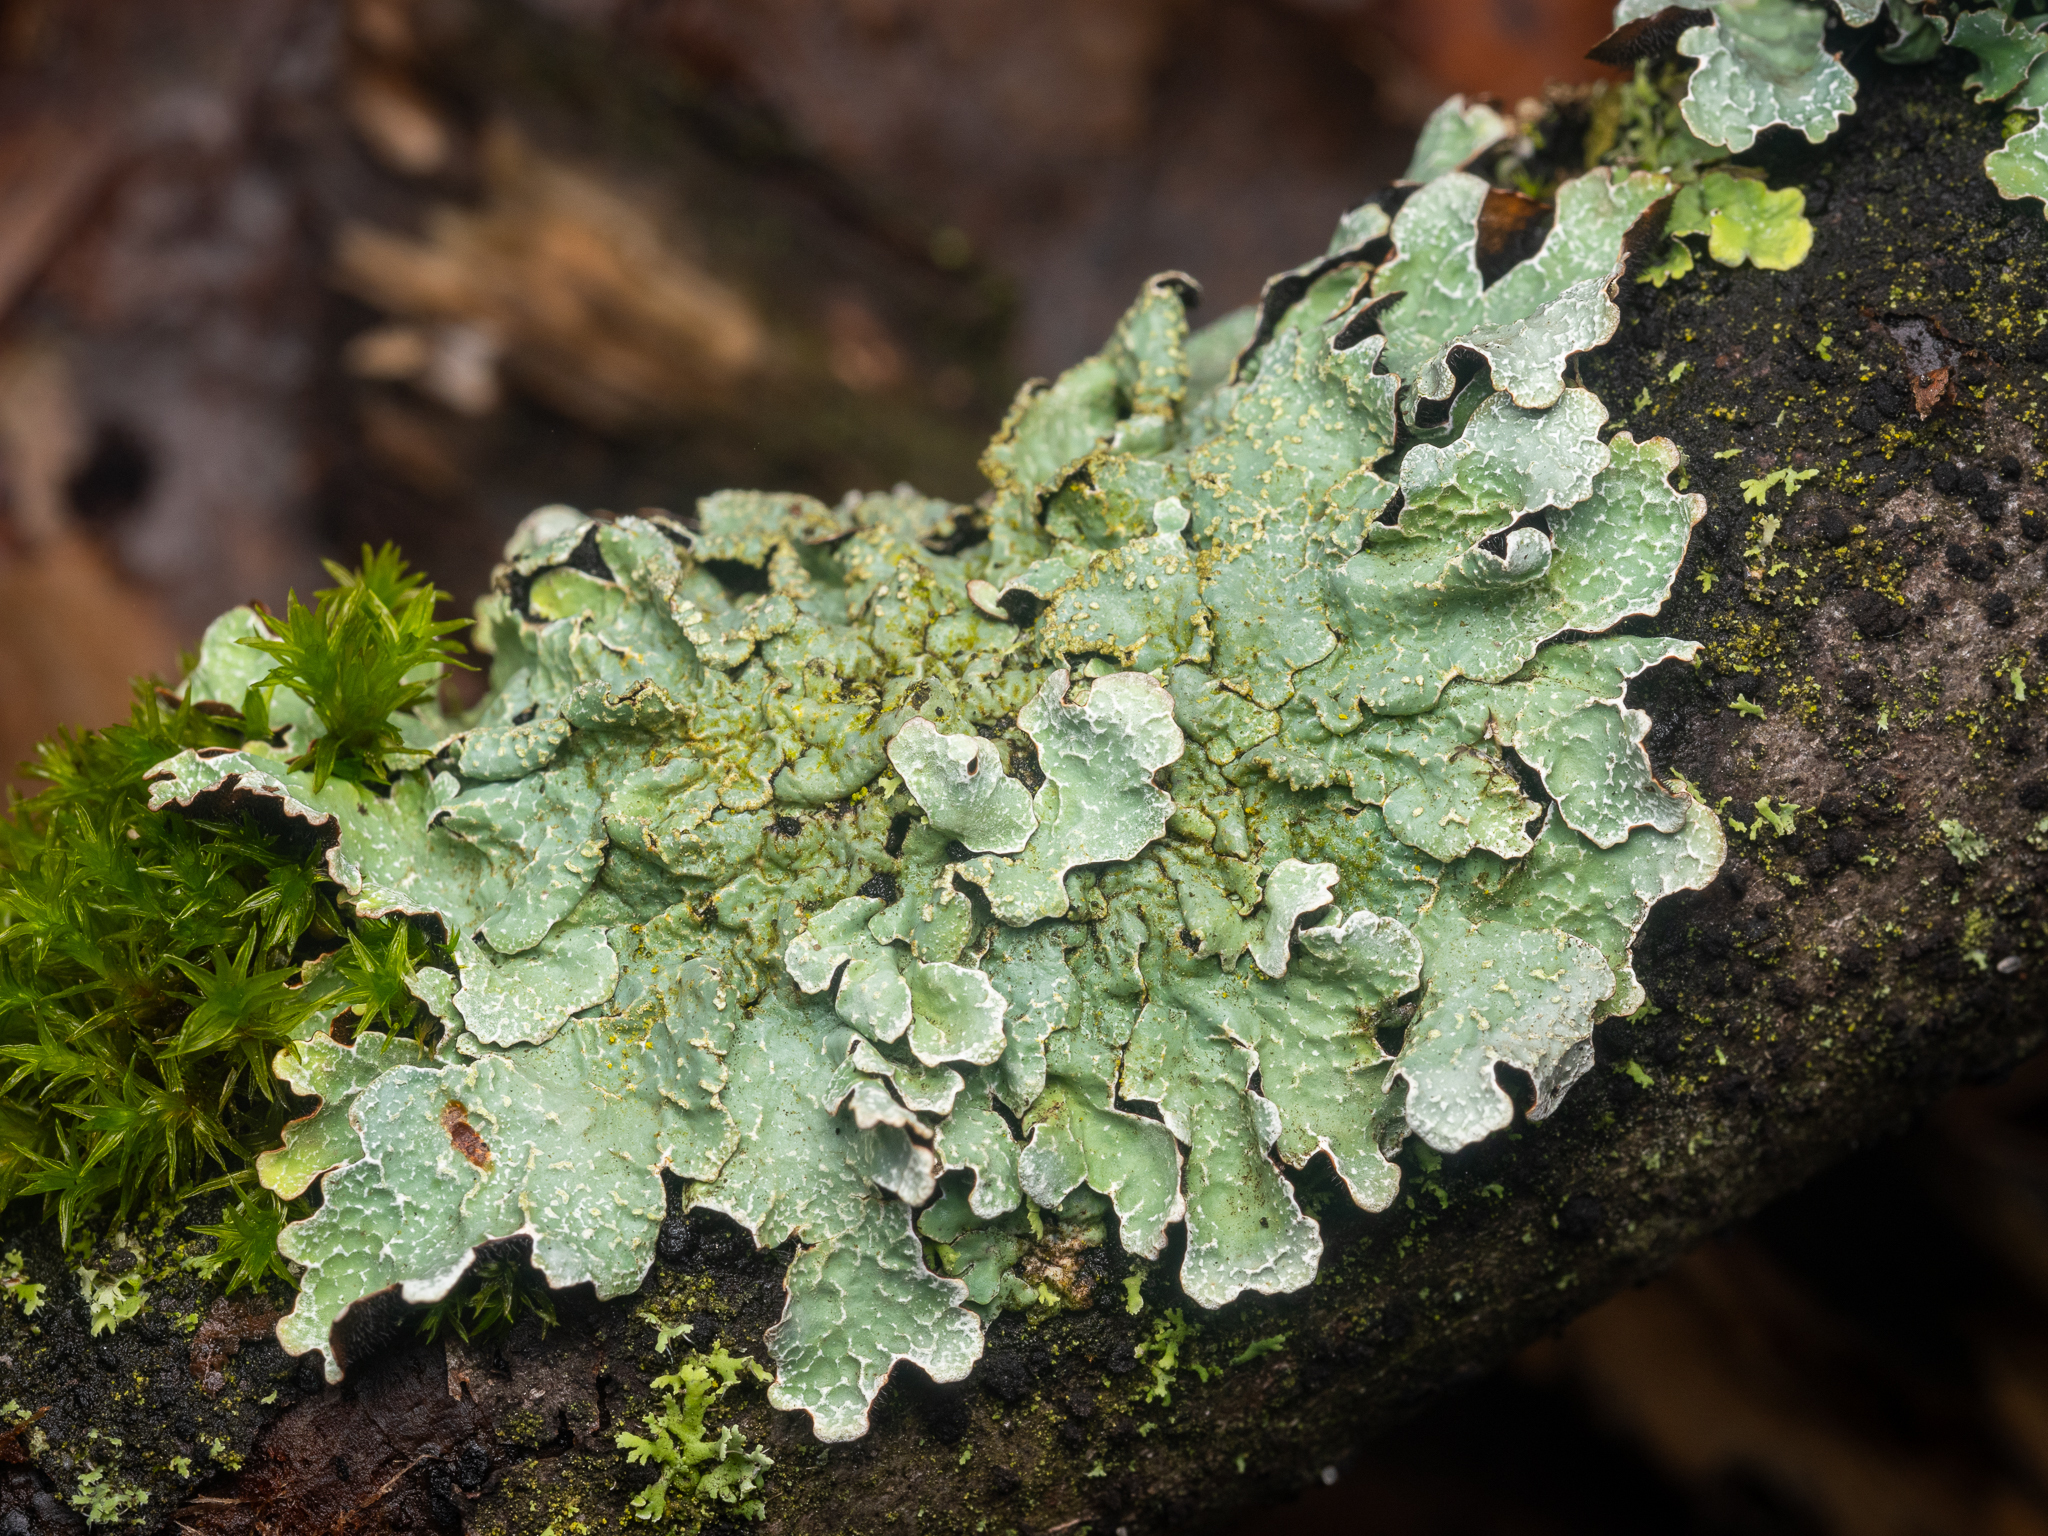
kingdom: Fungi
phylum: Ascomycota
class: Lecanoromycetes
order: Lecanorales
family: Parmeliaceae
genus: Parmelia
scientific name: Parmelia sulcata
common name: Netted shield lichen
